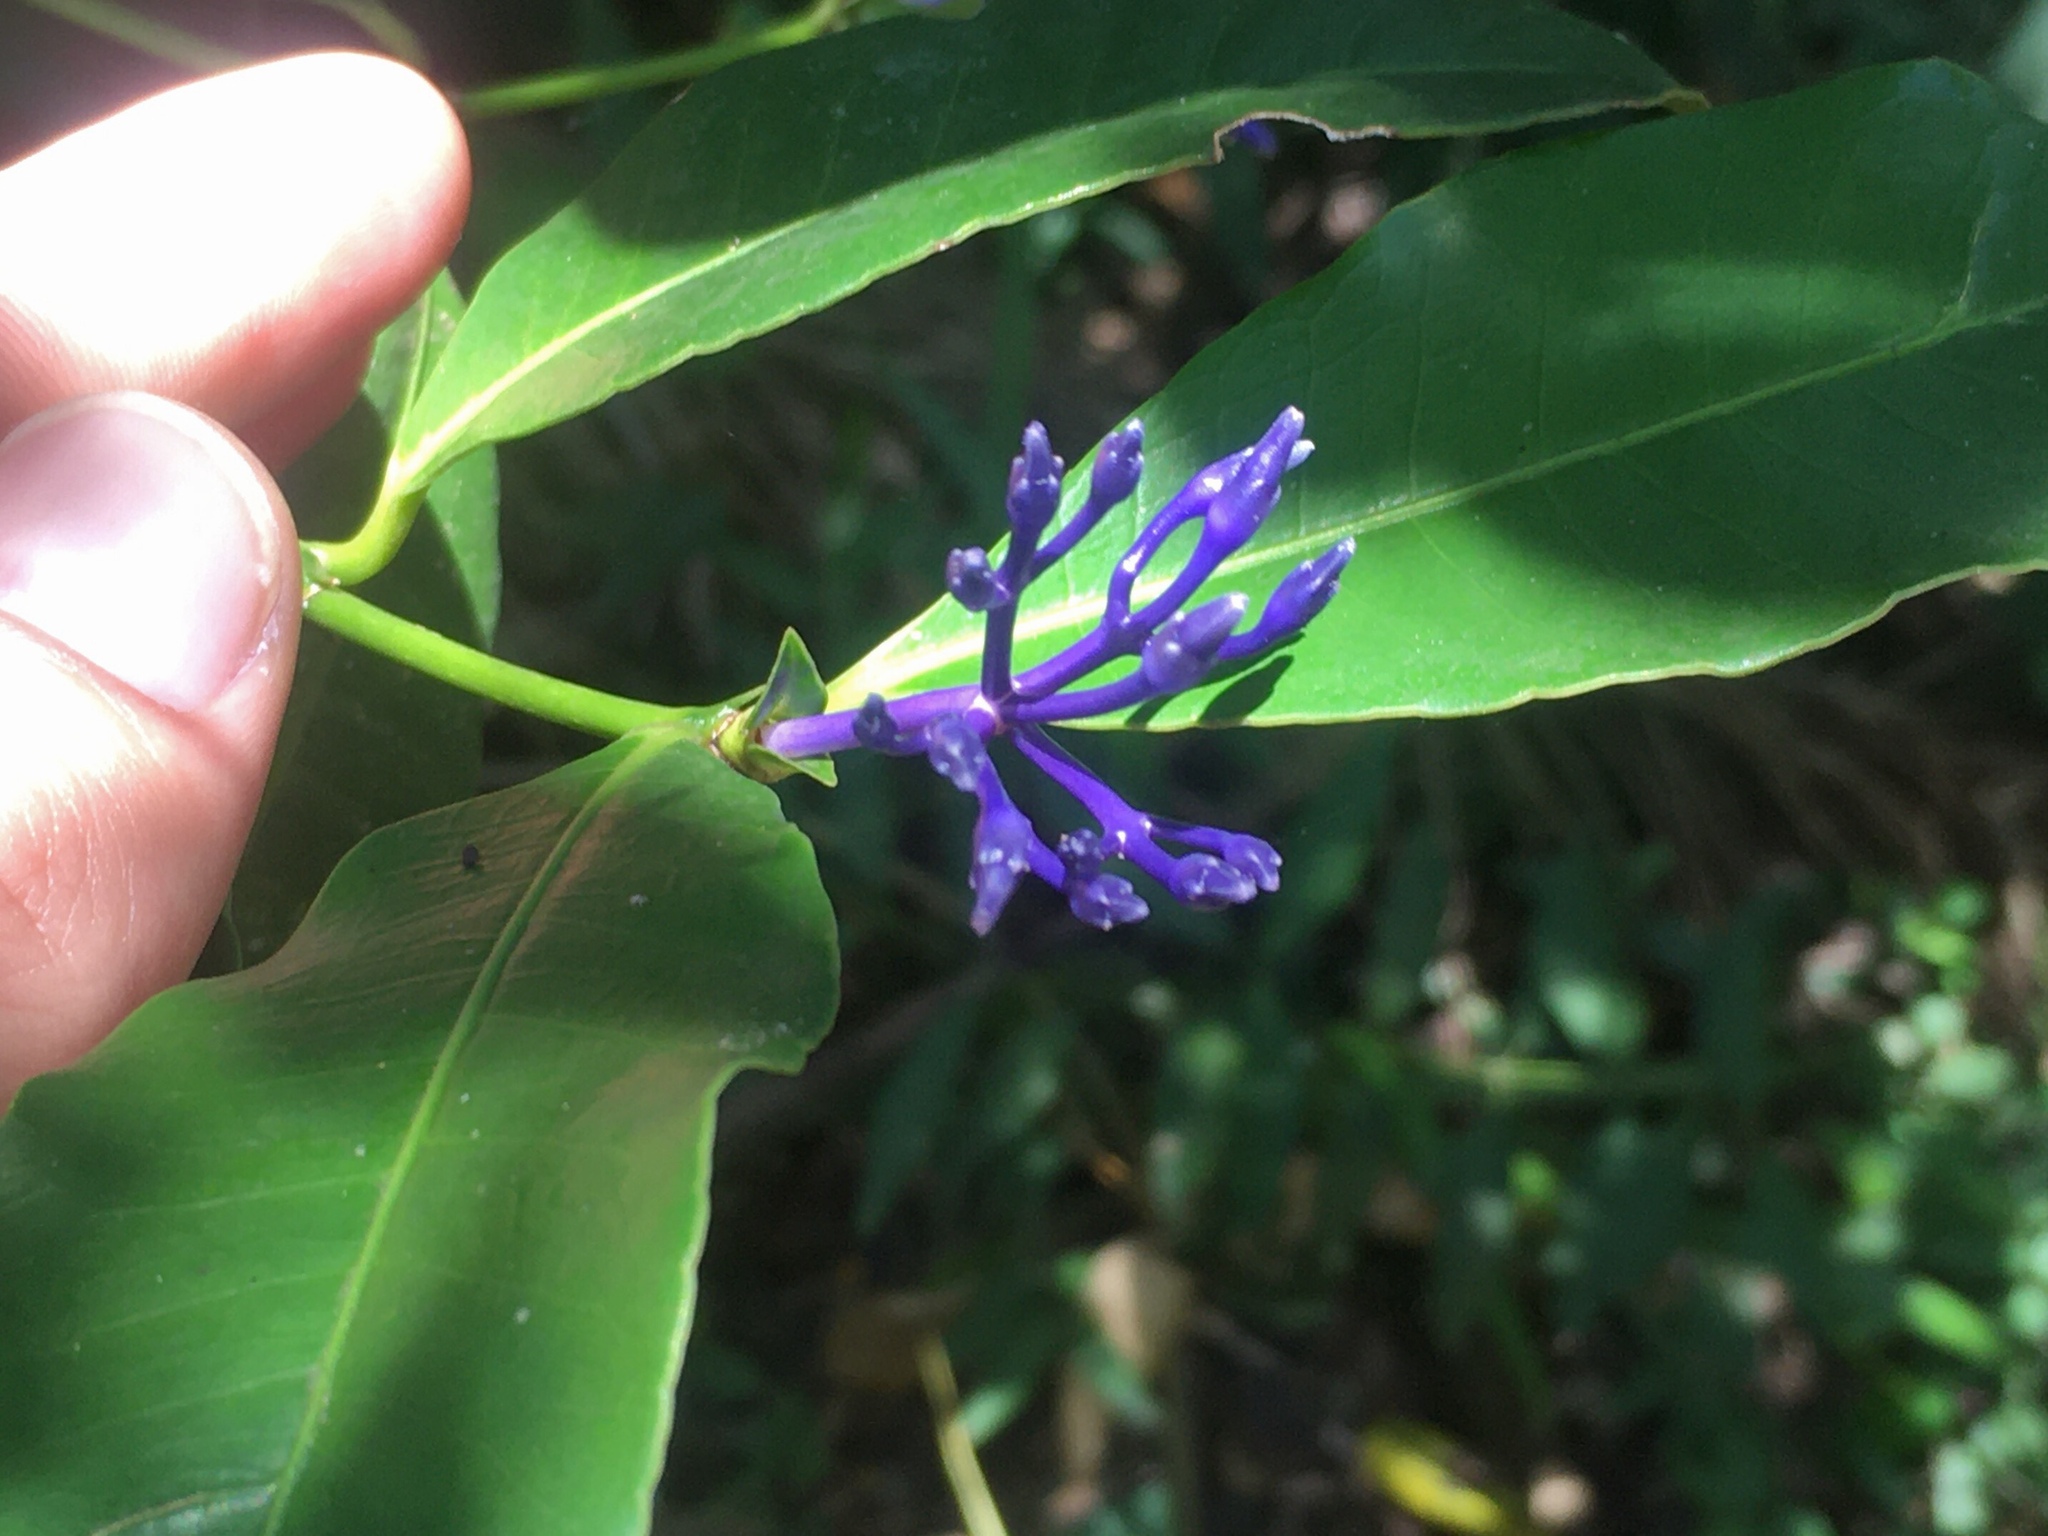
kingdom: Plantae
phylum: Tracheophyta
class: Magnoliopsida
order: Gentianales
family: Rubiaceae
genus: Faramea
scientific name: Faramea hyacinthina
